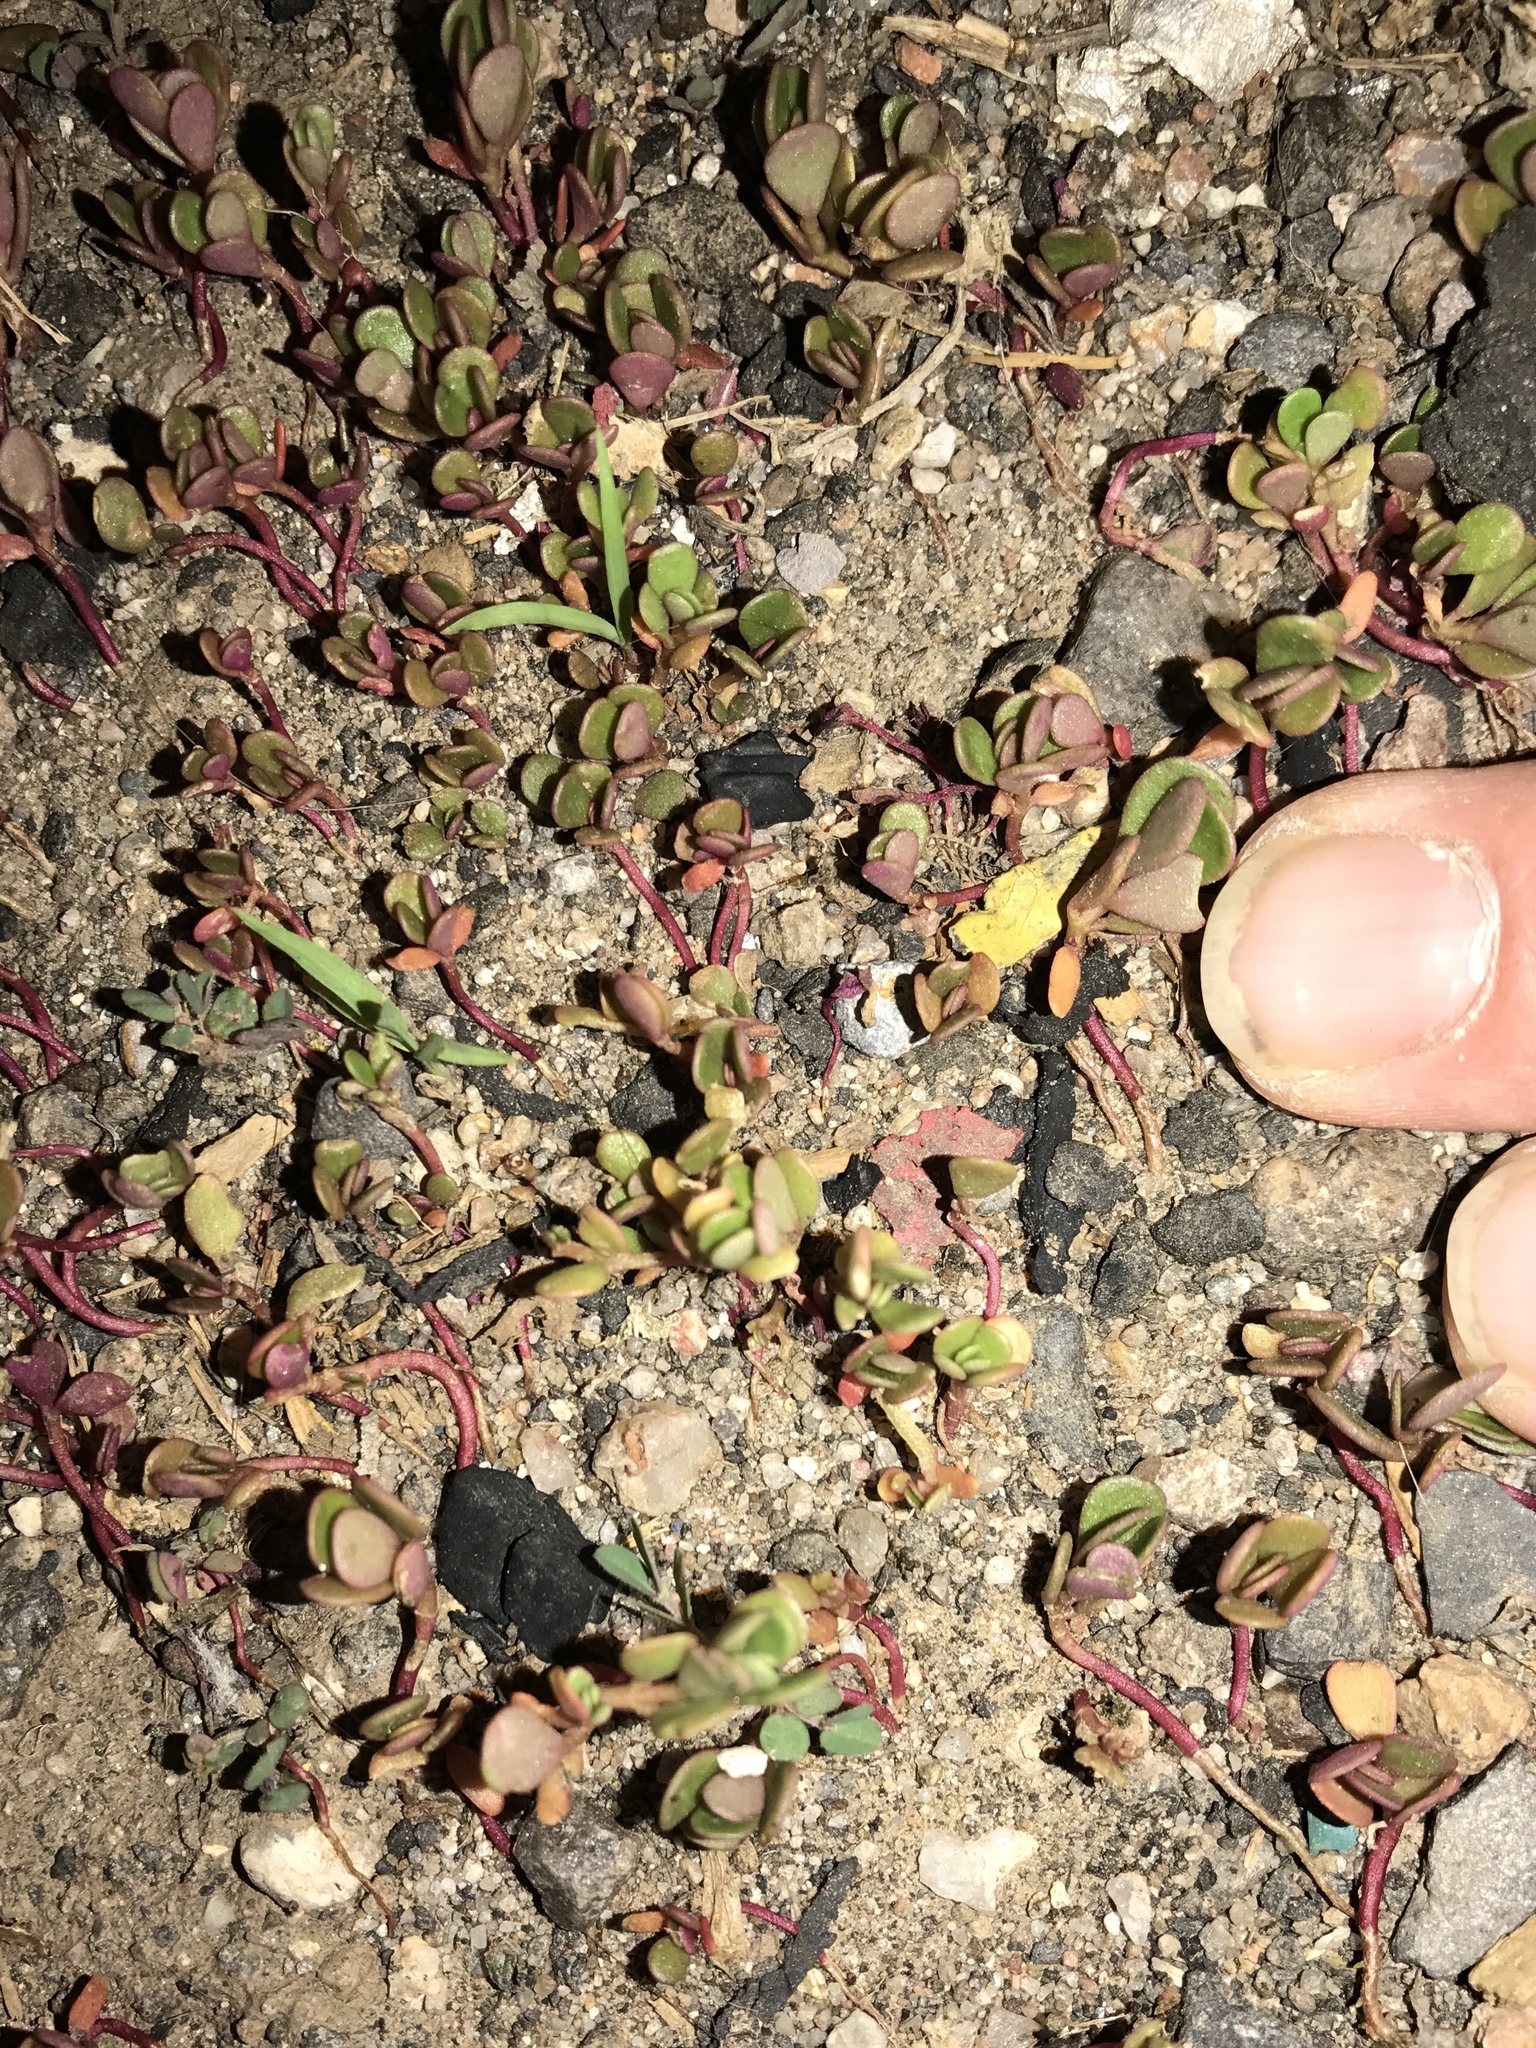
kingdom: Plantae
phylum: Tracheophyta
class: Magnoliopsida
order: Caryophyllales
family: Portulacaceae
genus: Portulaca
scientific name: Portulaca impolita
